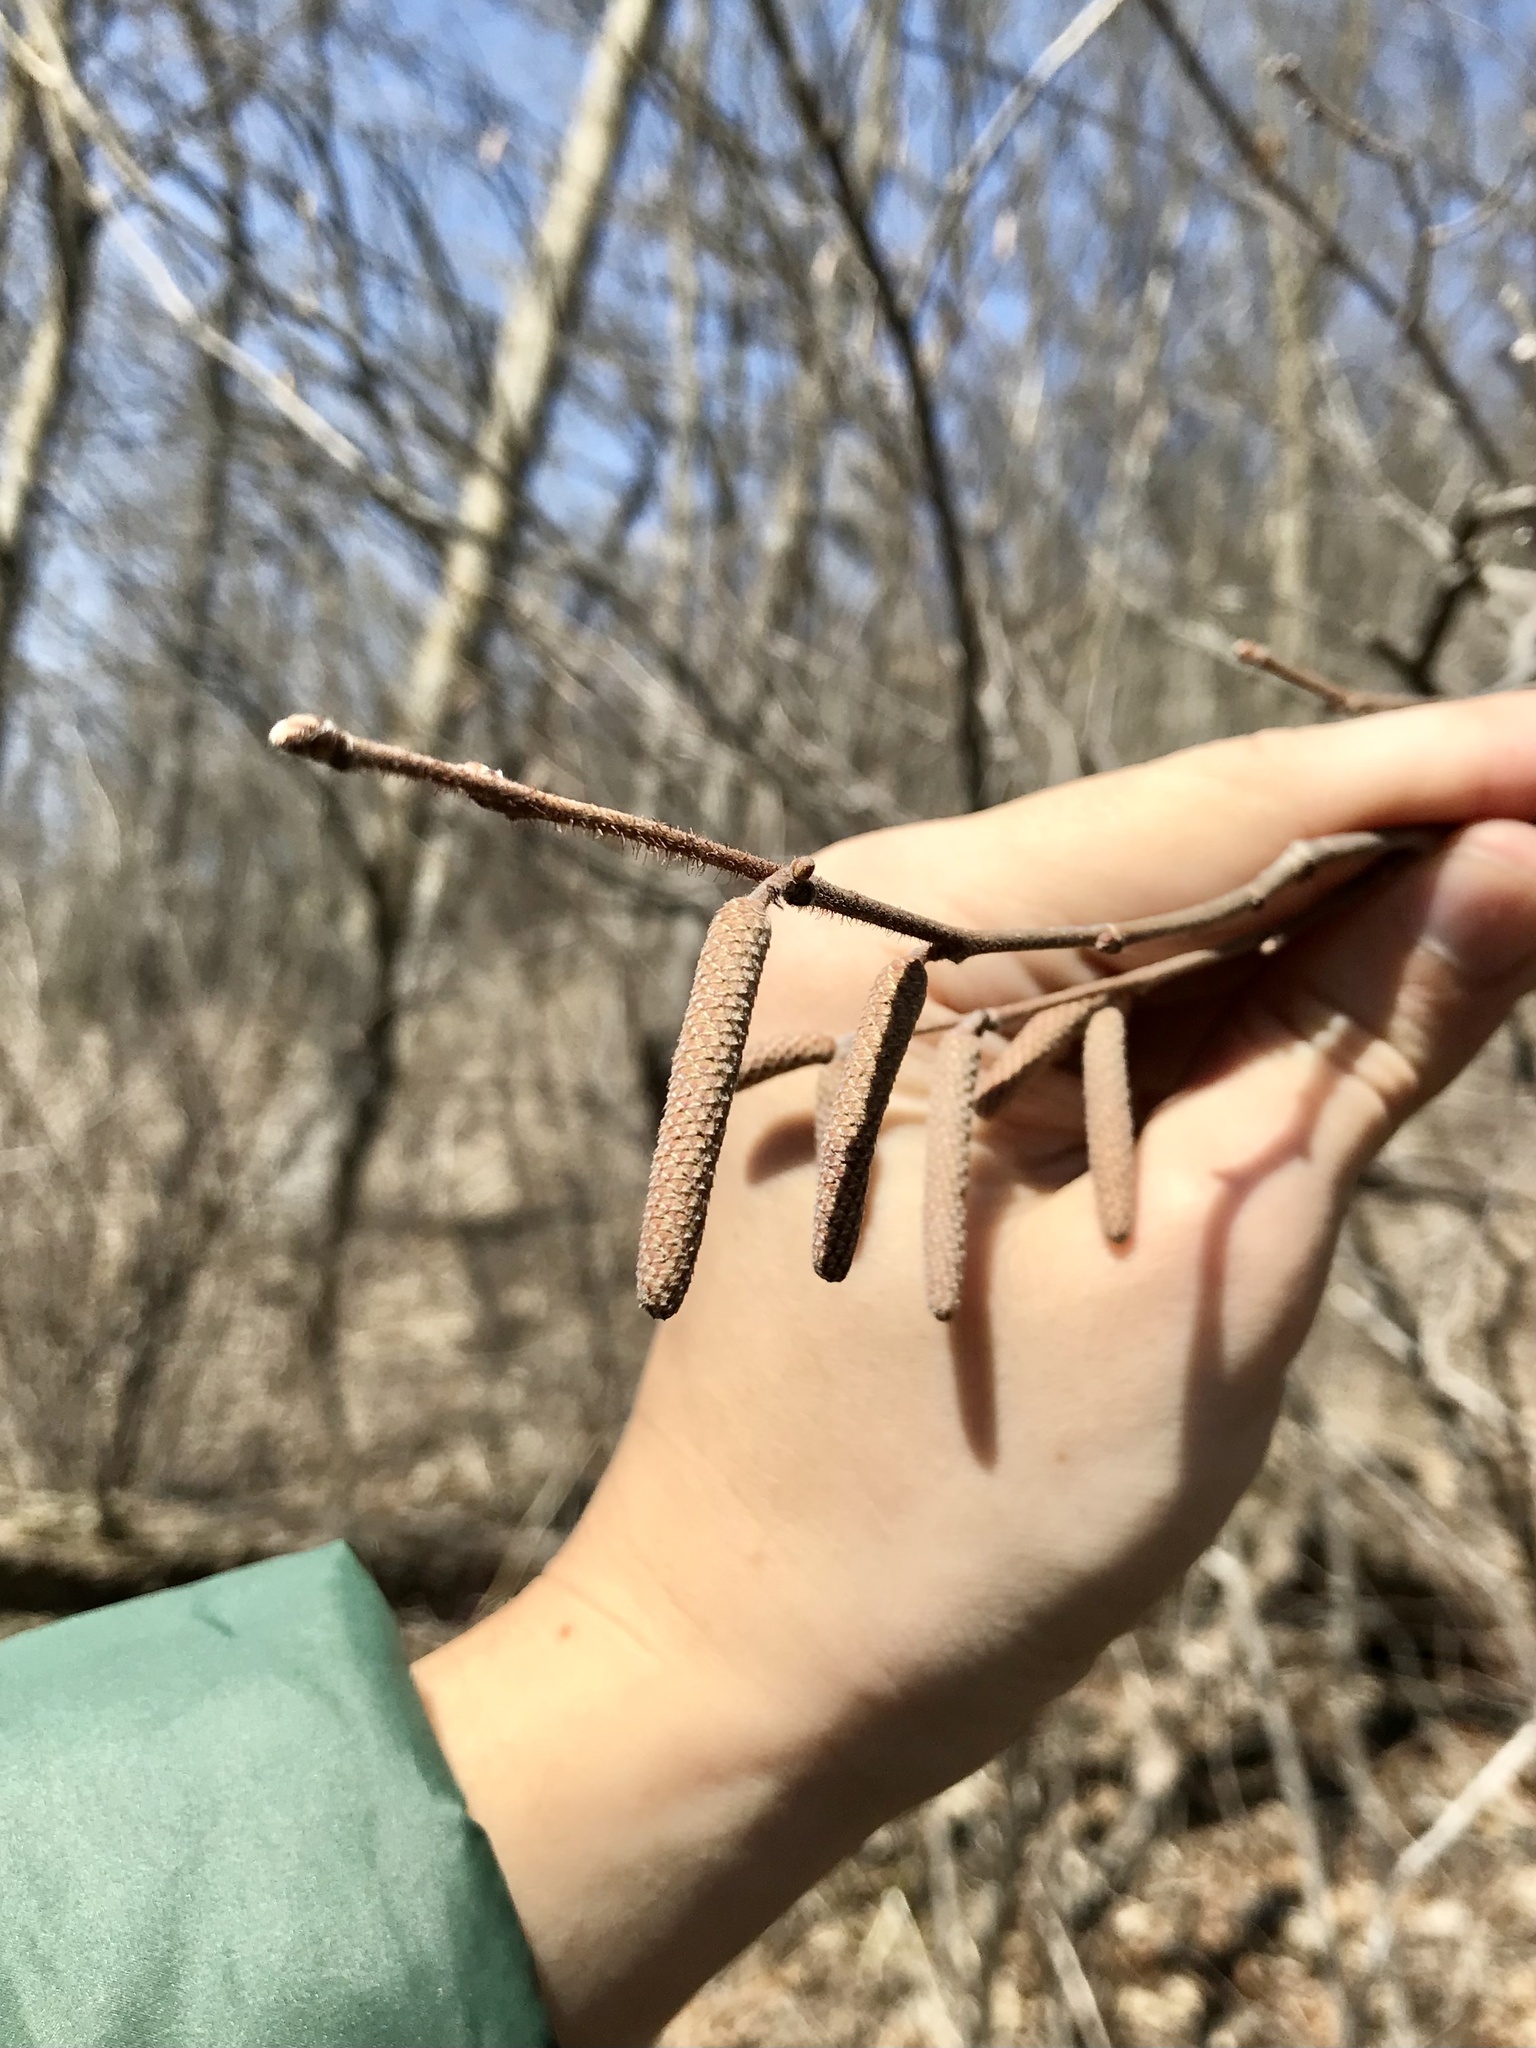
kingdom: Plantae
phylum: Tracheophyta
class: Magnoliopsida
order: Fagales
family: Betulaceae
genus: Corylus
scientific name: Corylus americana
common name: American hazel
